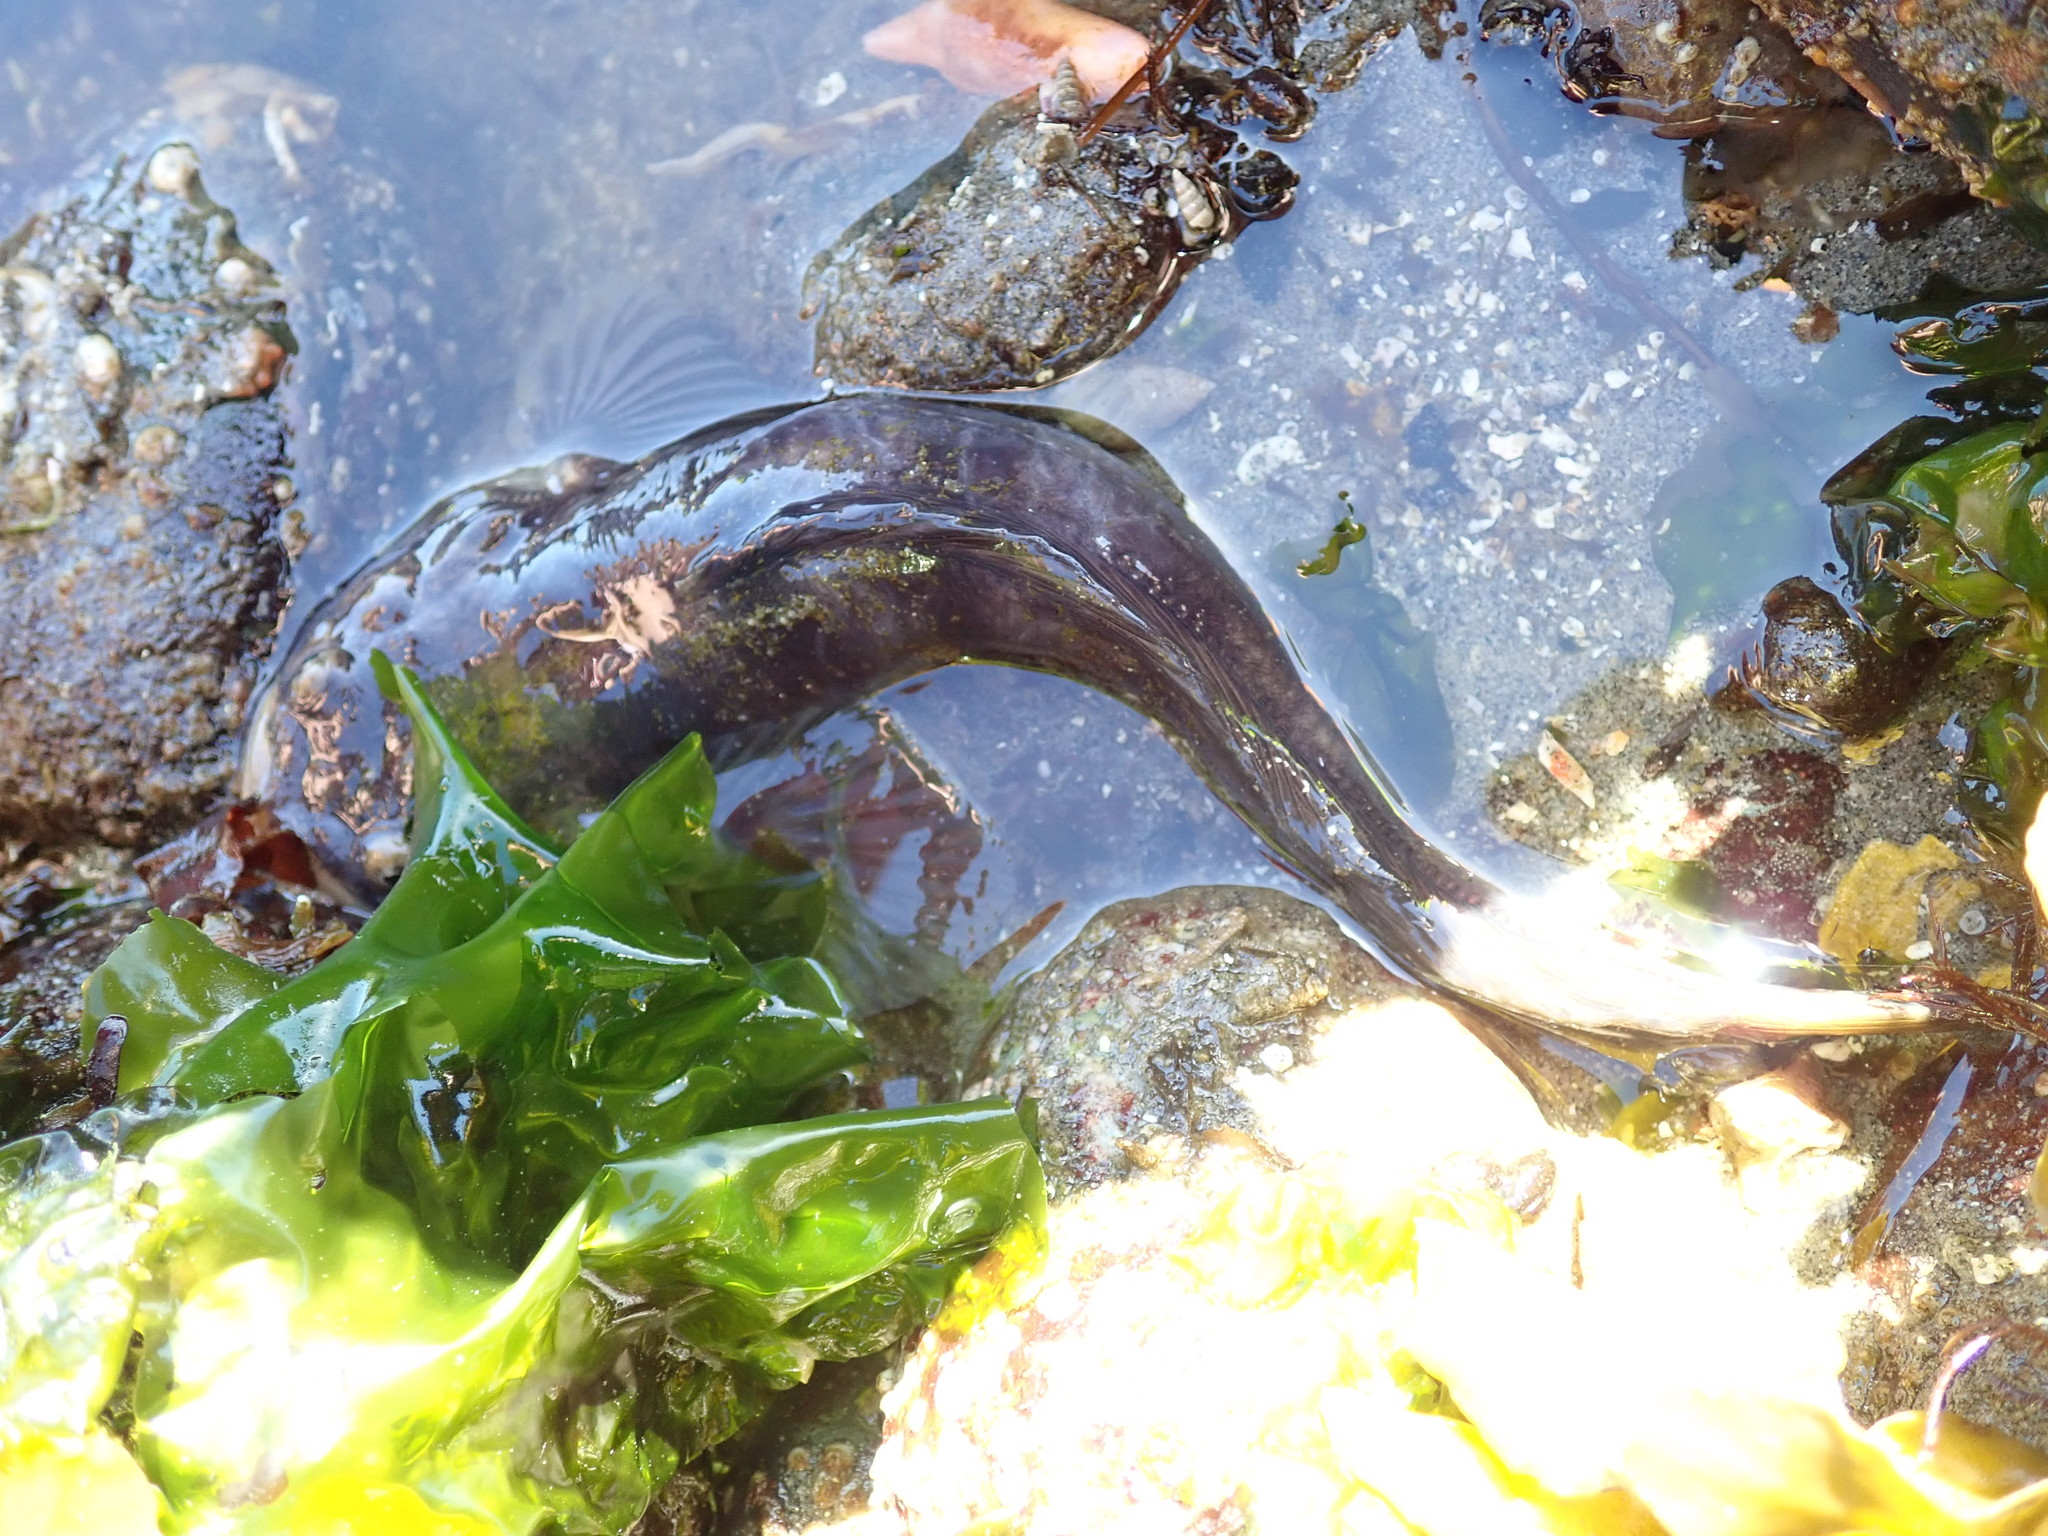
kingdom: Animalia
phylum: Chordata
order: Batrachoidiformes
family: Batrachoididae
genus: Porichthys
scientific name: Porichthys notatus
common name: Plainfin midshipman
